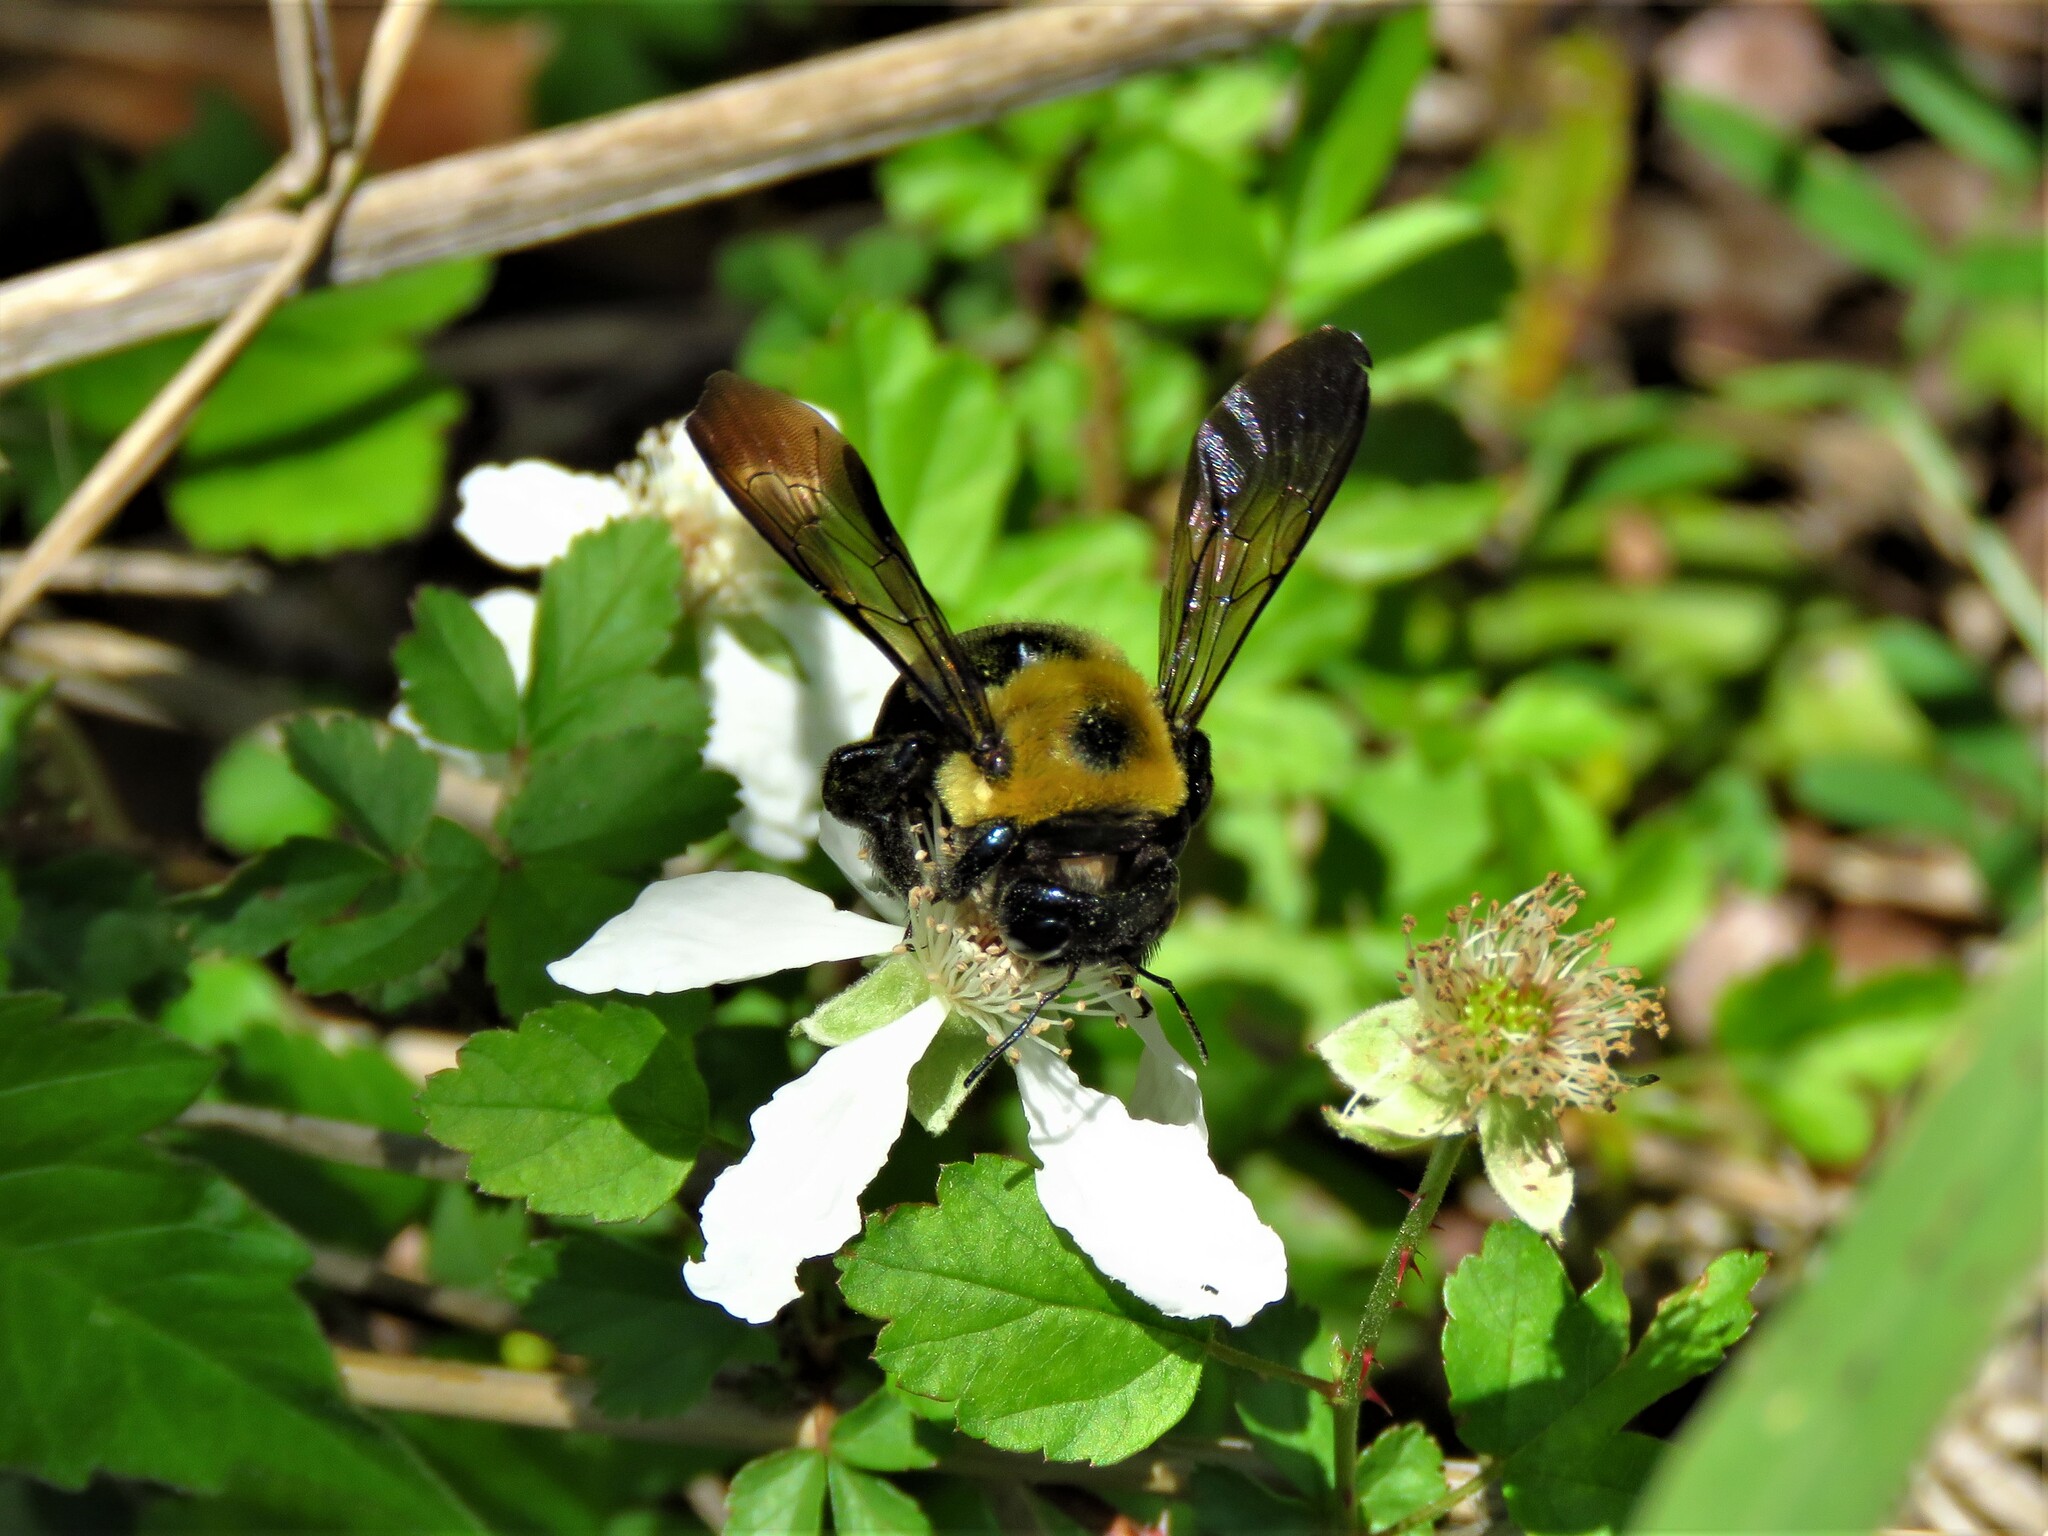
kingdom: Animalia
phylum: Arthropoda
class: Insecta
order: Hymenoptera
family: Apidae
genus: Xylocopa
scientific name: Xylocopa virginica
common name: Carpenter bee
